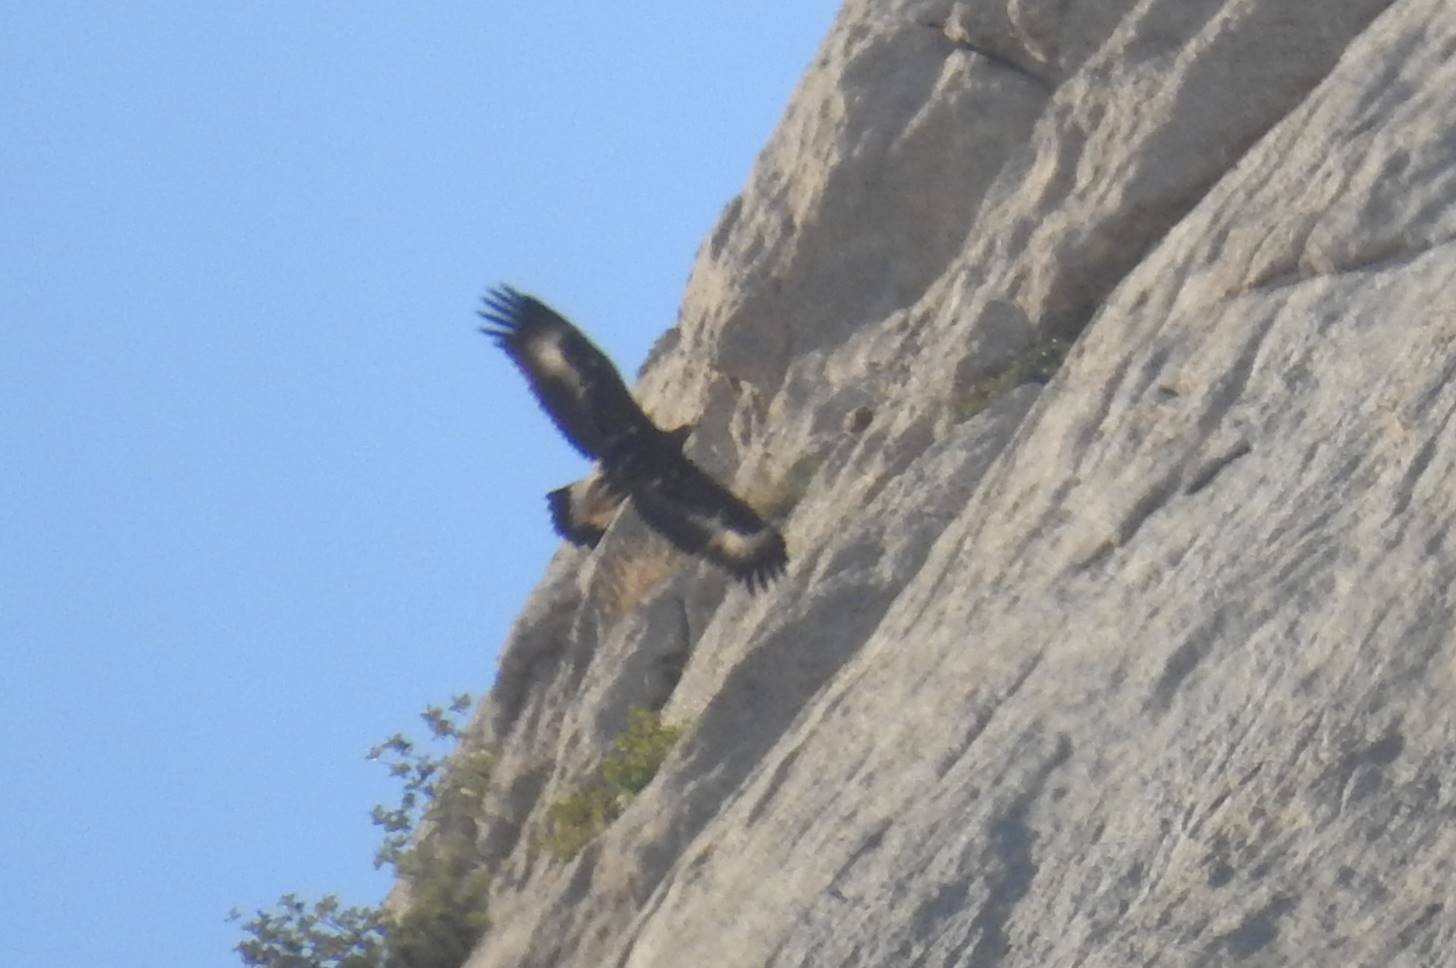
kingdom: Animalia
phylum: Chordata
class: Aves
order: Accipitriformes
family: Accipitridae
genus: Aquila
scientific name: Aquila chrysaetos
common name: Golden eagle
